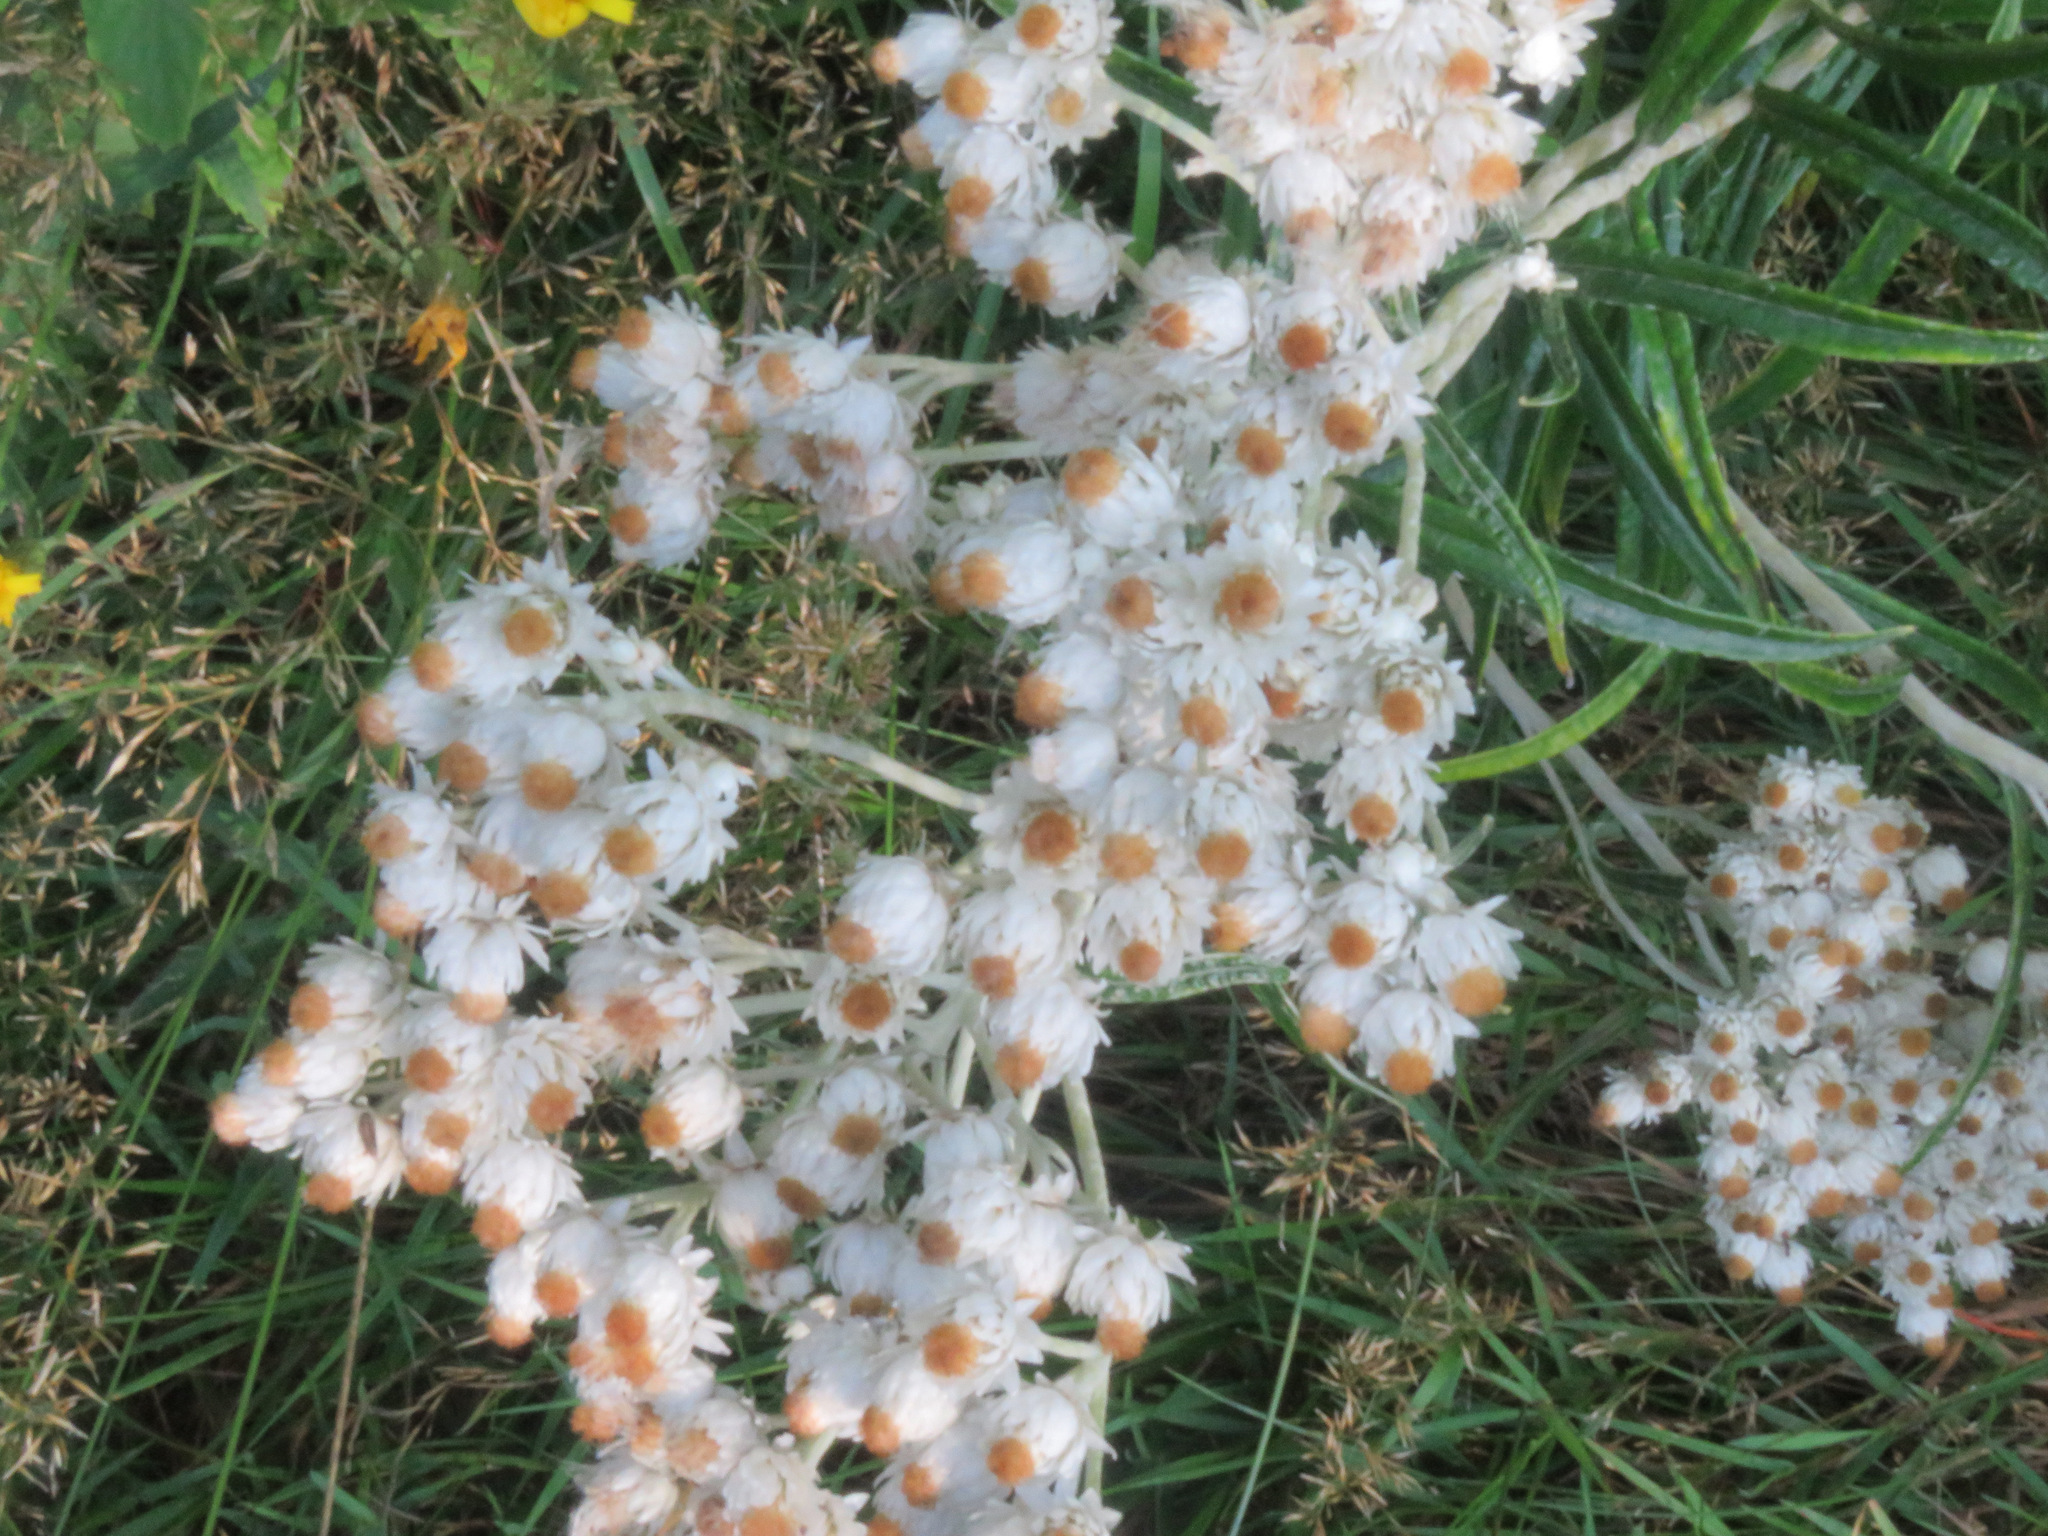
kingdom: Plantae
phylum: Tracheophyta
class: Magnoliopsida
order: Asterales
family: Asteraceae
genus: Anaphalis
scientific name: Anaphalis margaritacea
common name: Pearly everlasting
